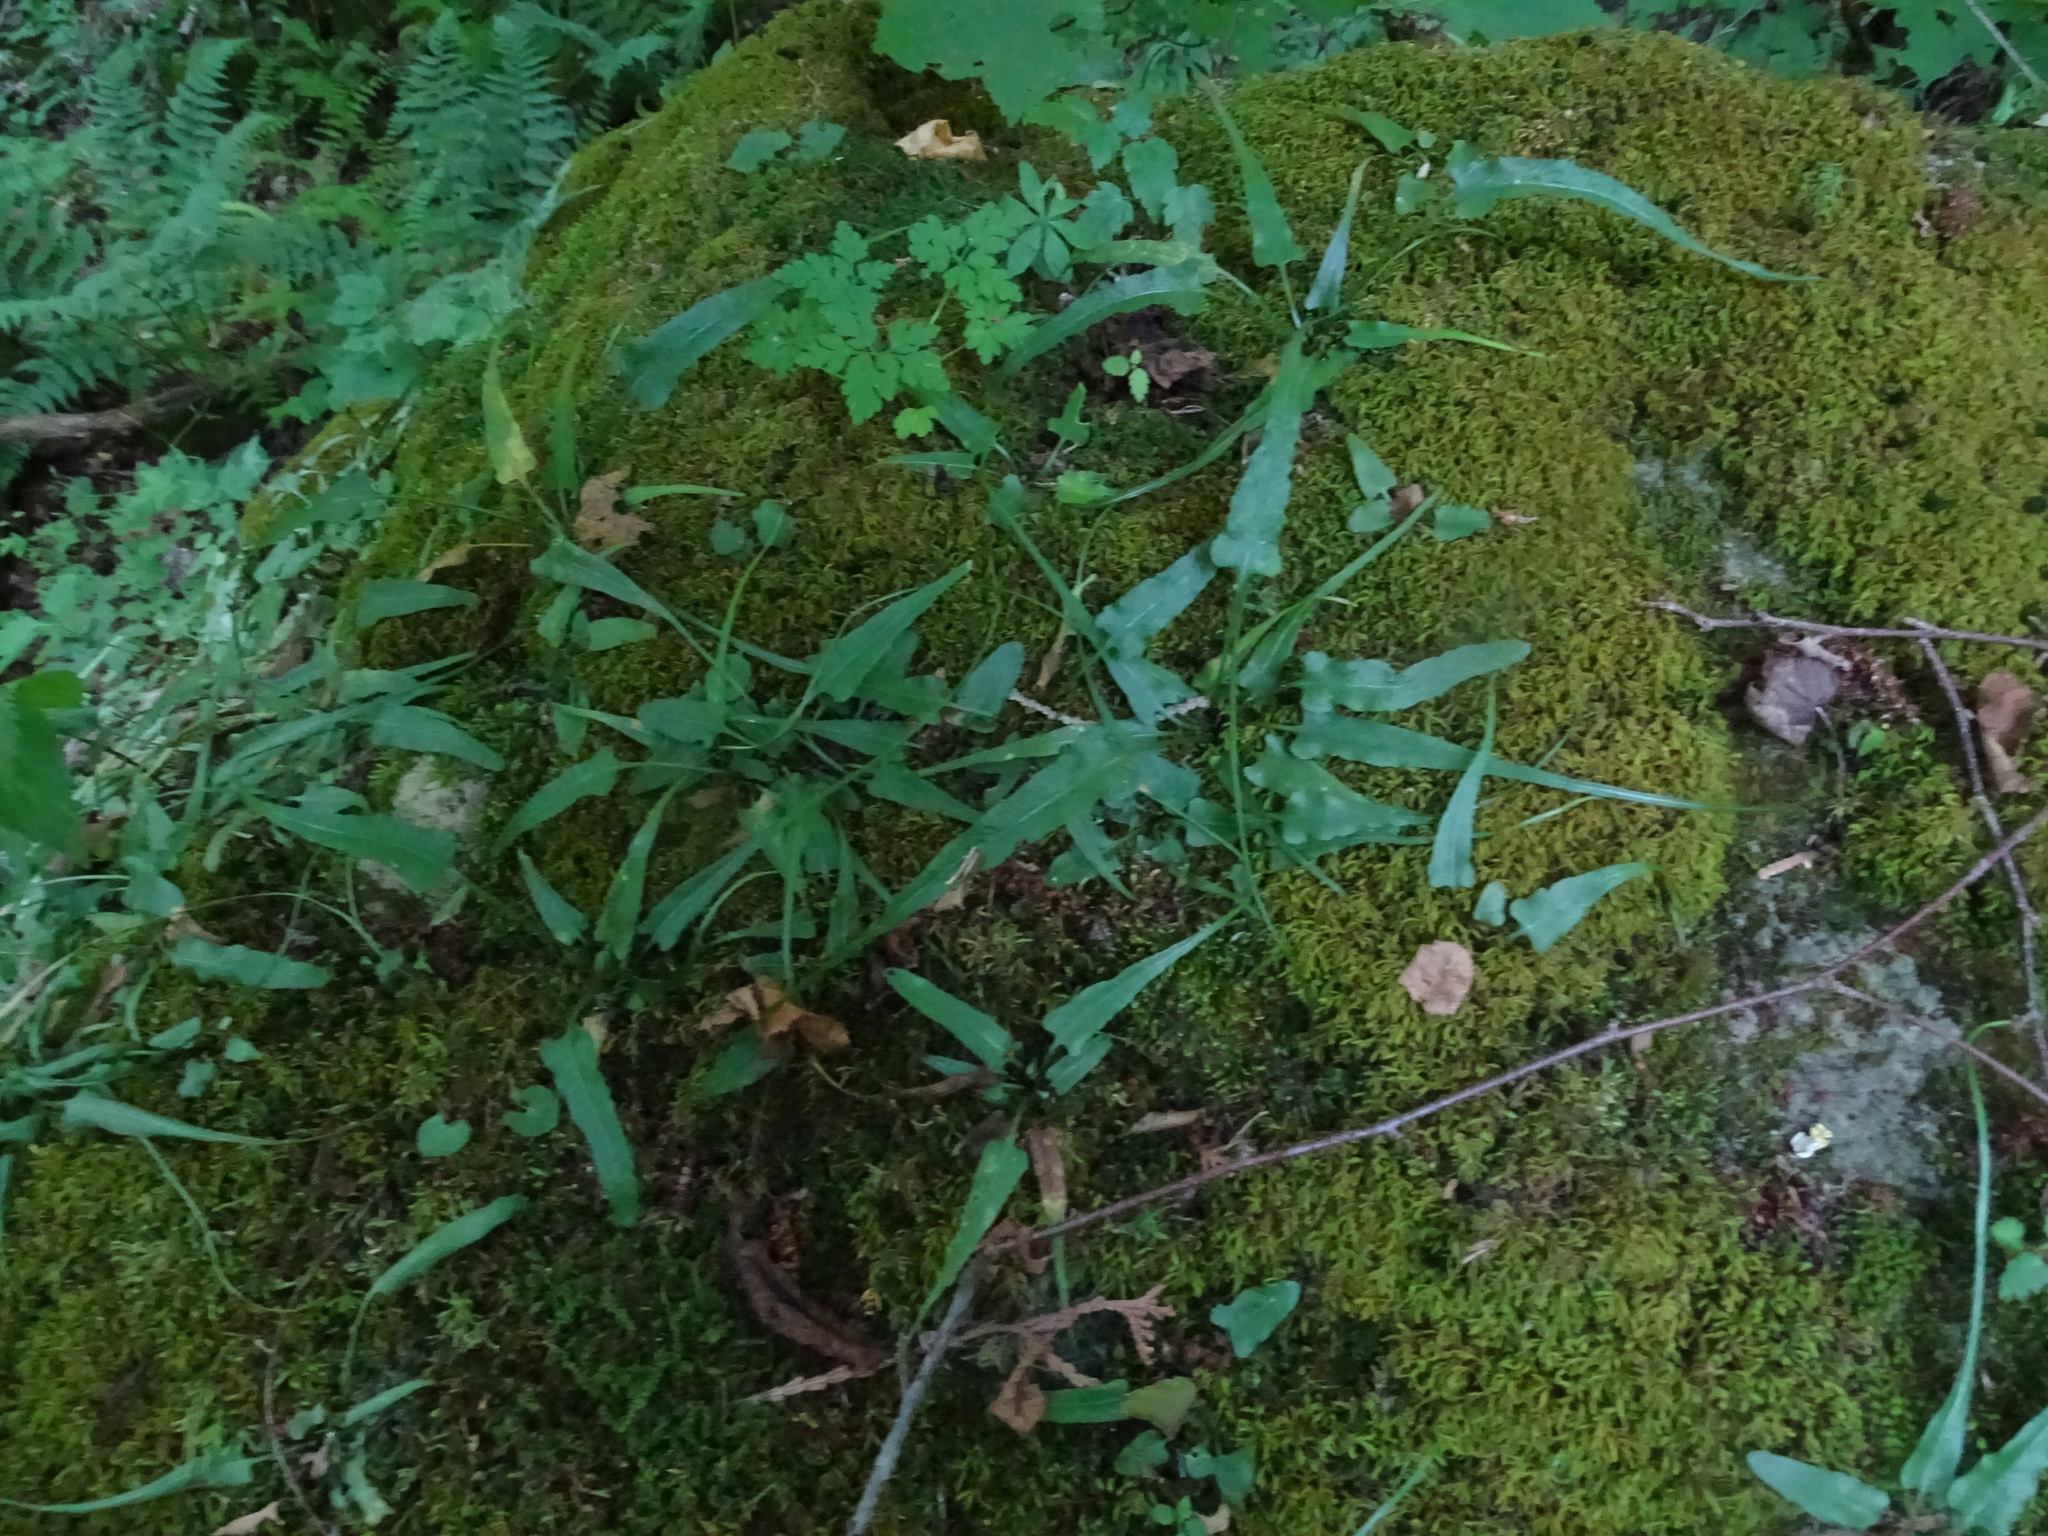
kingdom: Plantae
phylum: Tracheophyta
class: Polypodiopsida
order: Polypodiales
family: Aspleniaceae
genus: Asplenium
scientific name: Asplenium rhizophyllum
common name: Walking fern
